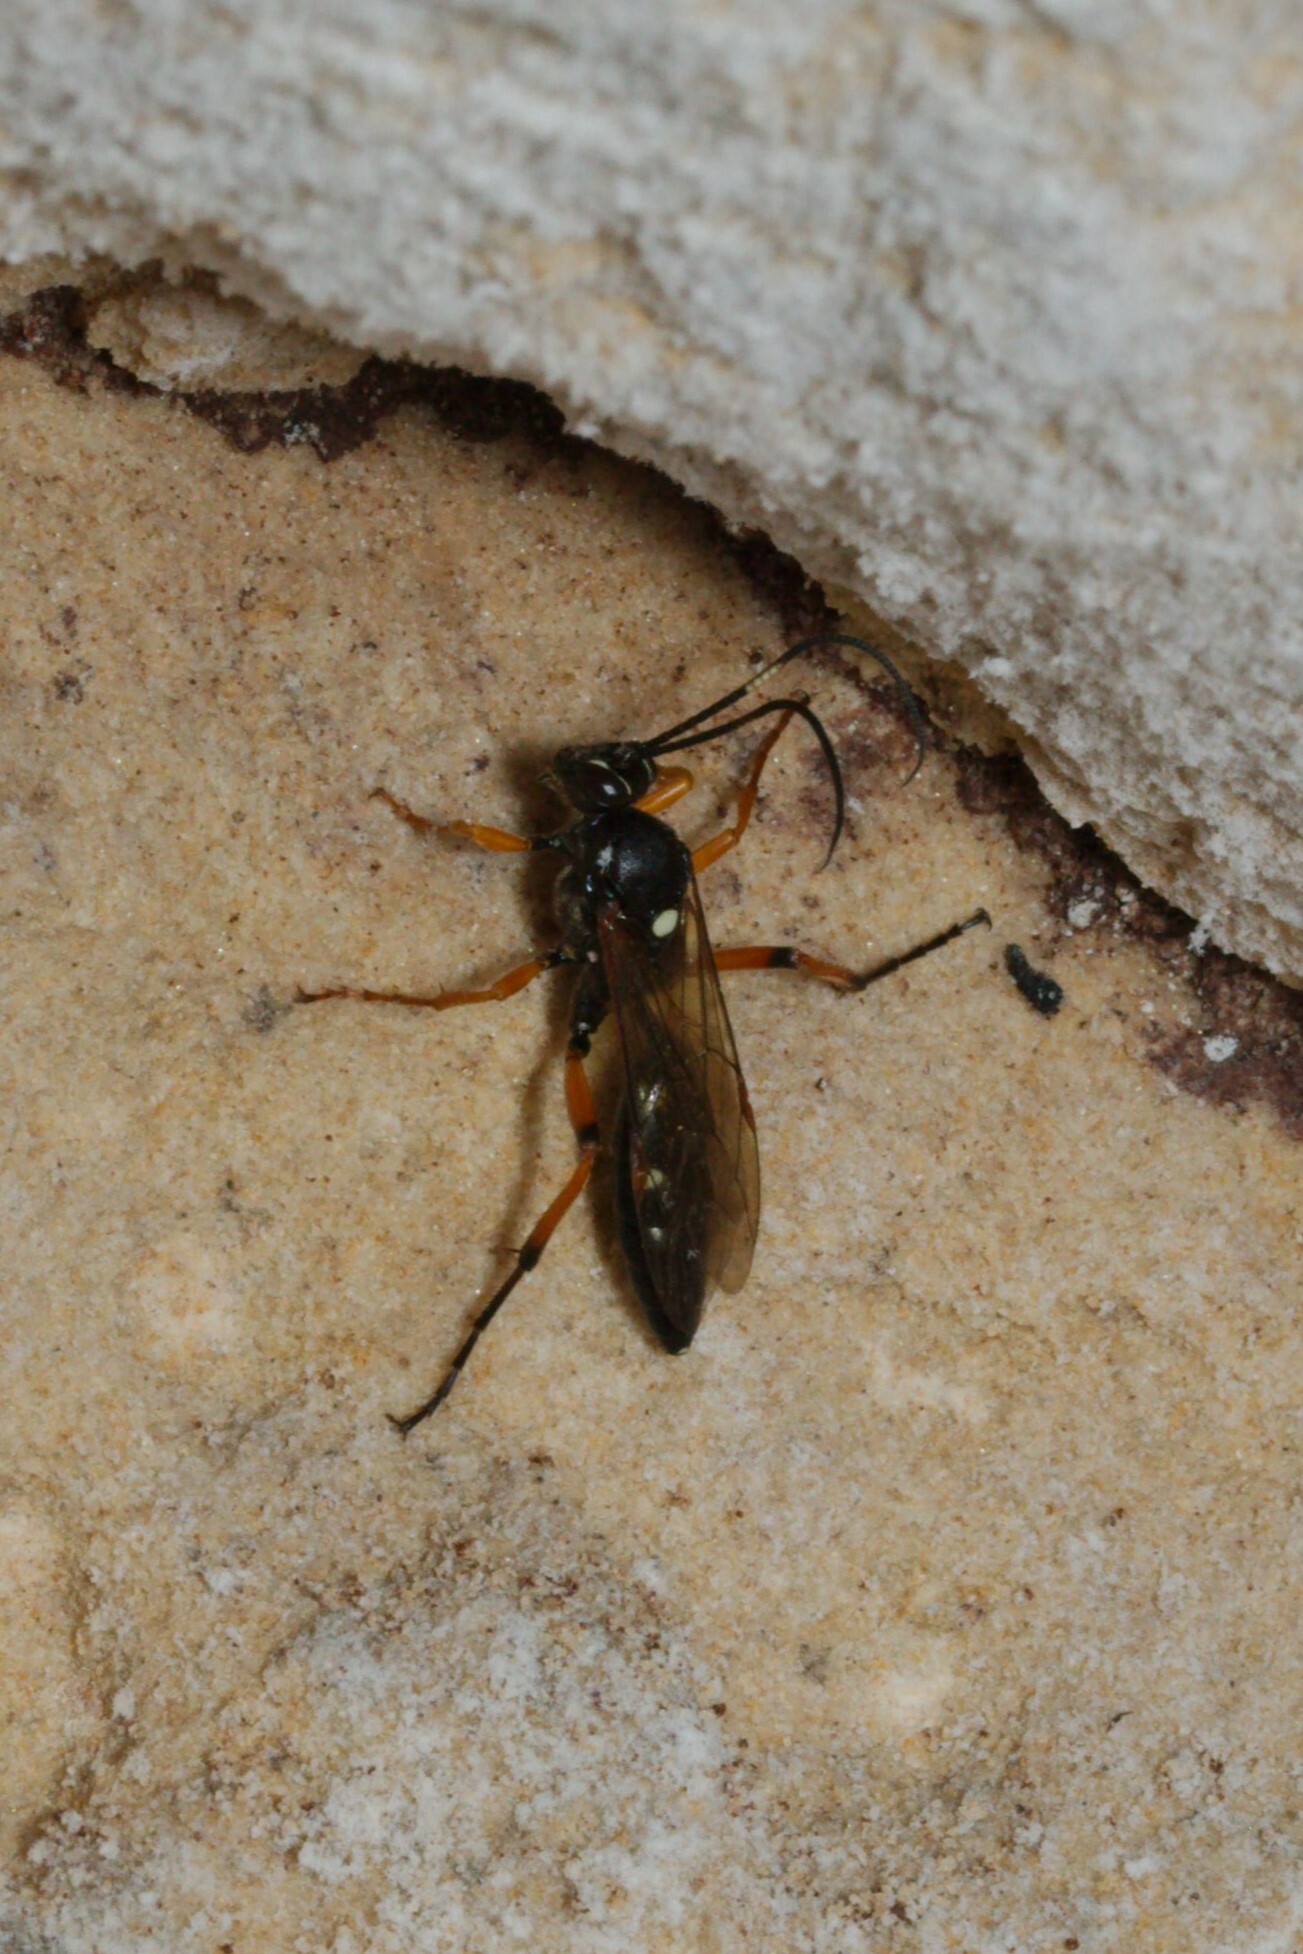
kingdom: Animalia
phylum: Arthropoda
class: Insecta
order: Hymenoptera
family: Ichneumonidae
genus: Diphyus
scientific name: Diphyus quadripunctorius
